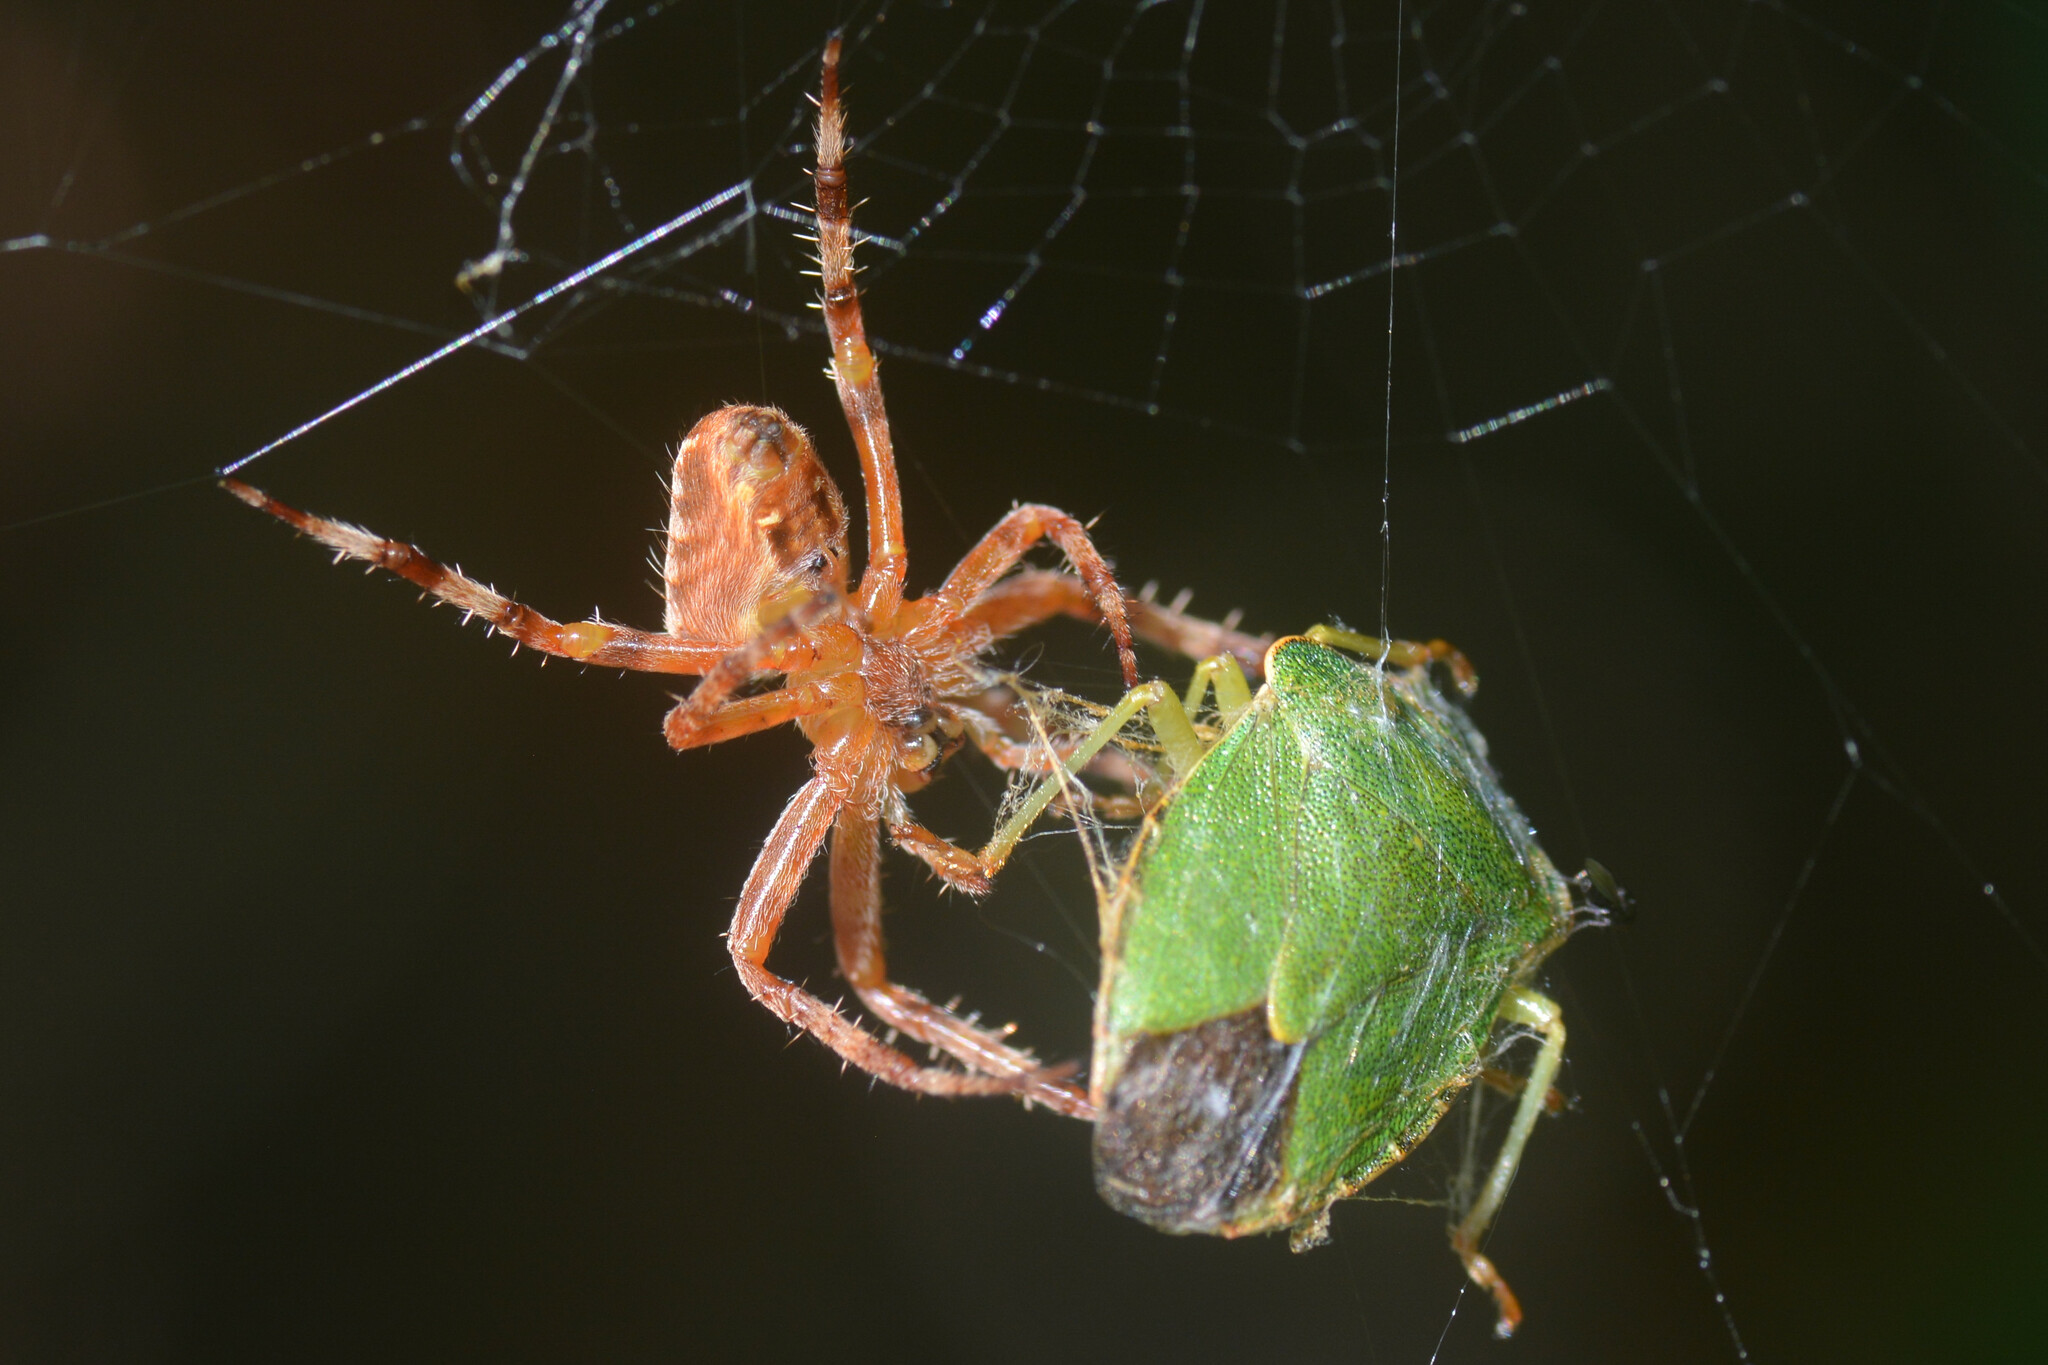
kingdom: Animalia
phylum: Arthropoda
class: Insecta
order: Hemiptera
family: Pentatomidae
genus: Palomena
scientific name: Palomena prasina
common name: Green shieldbug
